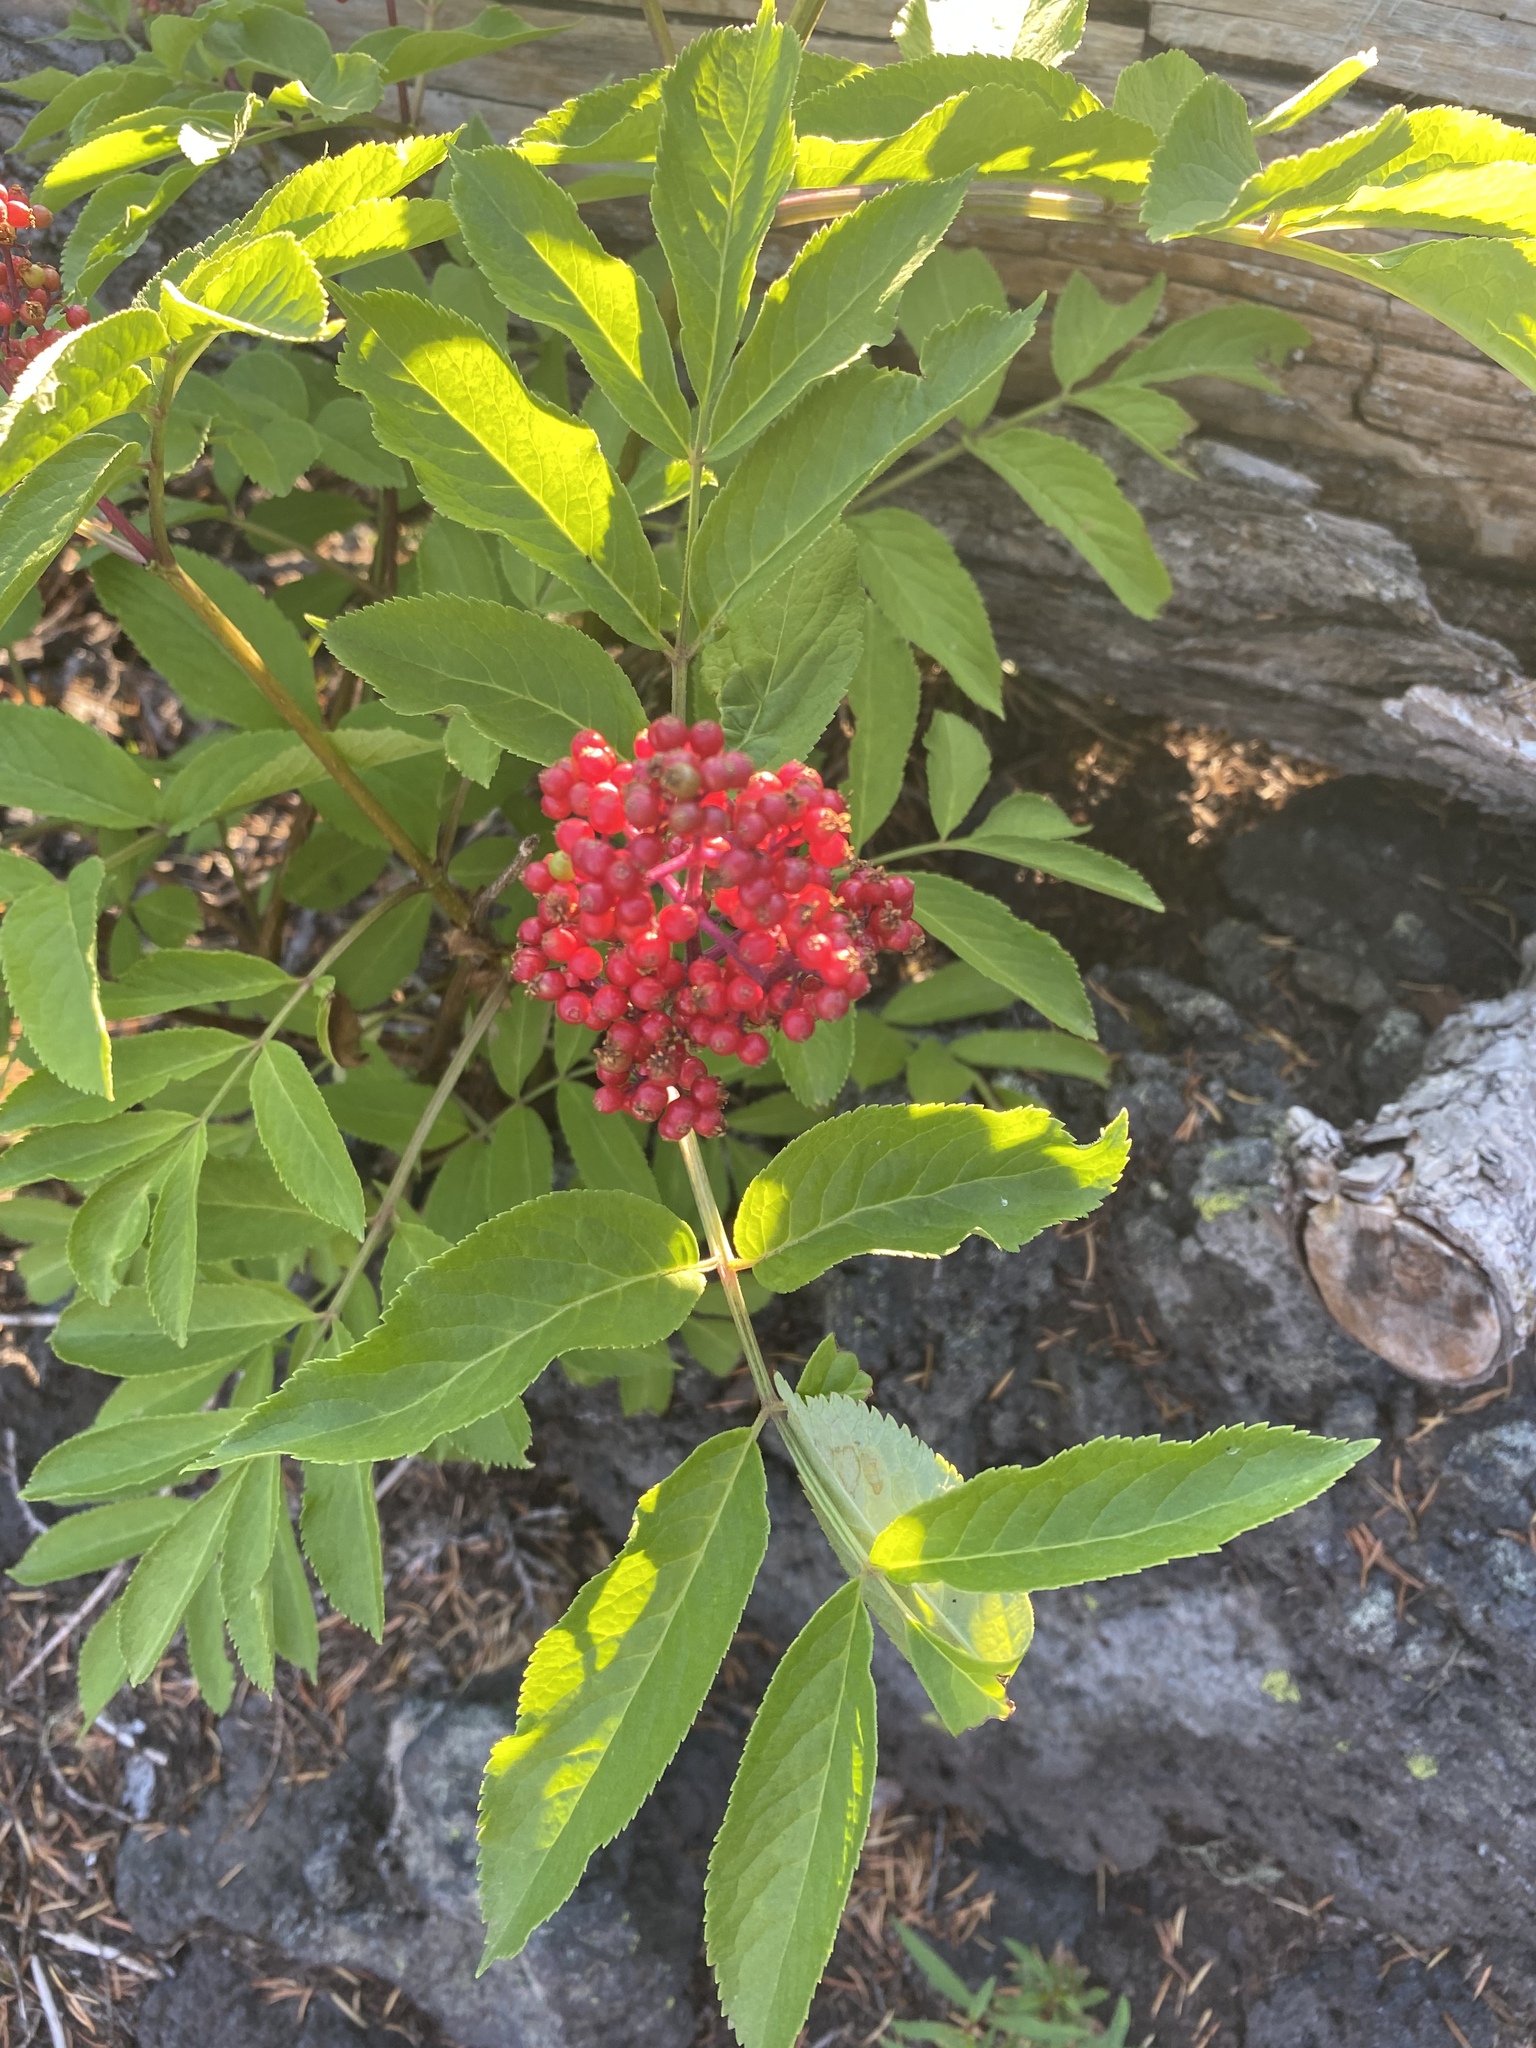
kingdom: Plantae
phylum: Tracheophyta
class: Magnoliopsida
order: Dipsacales
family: Viburnaceae
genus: Sambucus
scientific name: Sambucus racemosa
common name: Red-berried elder
